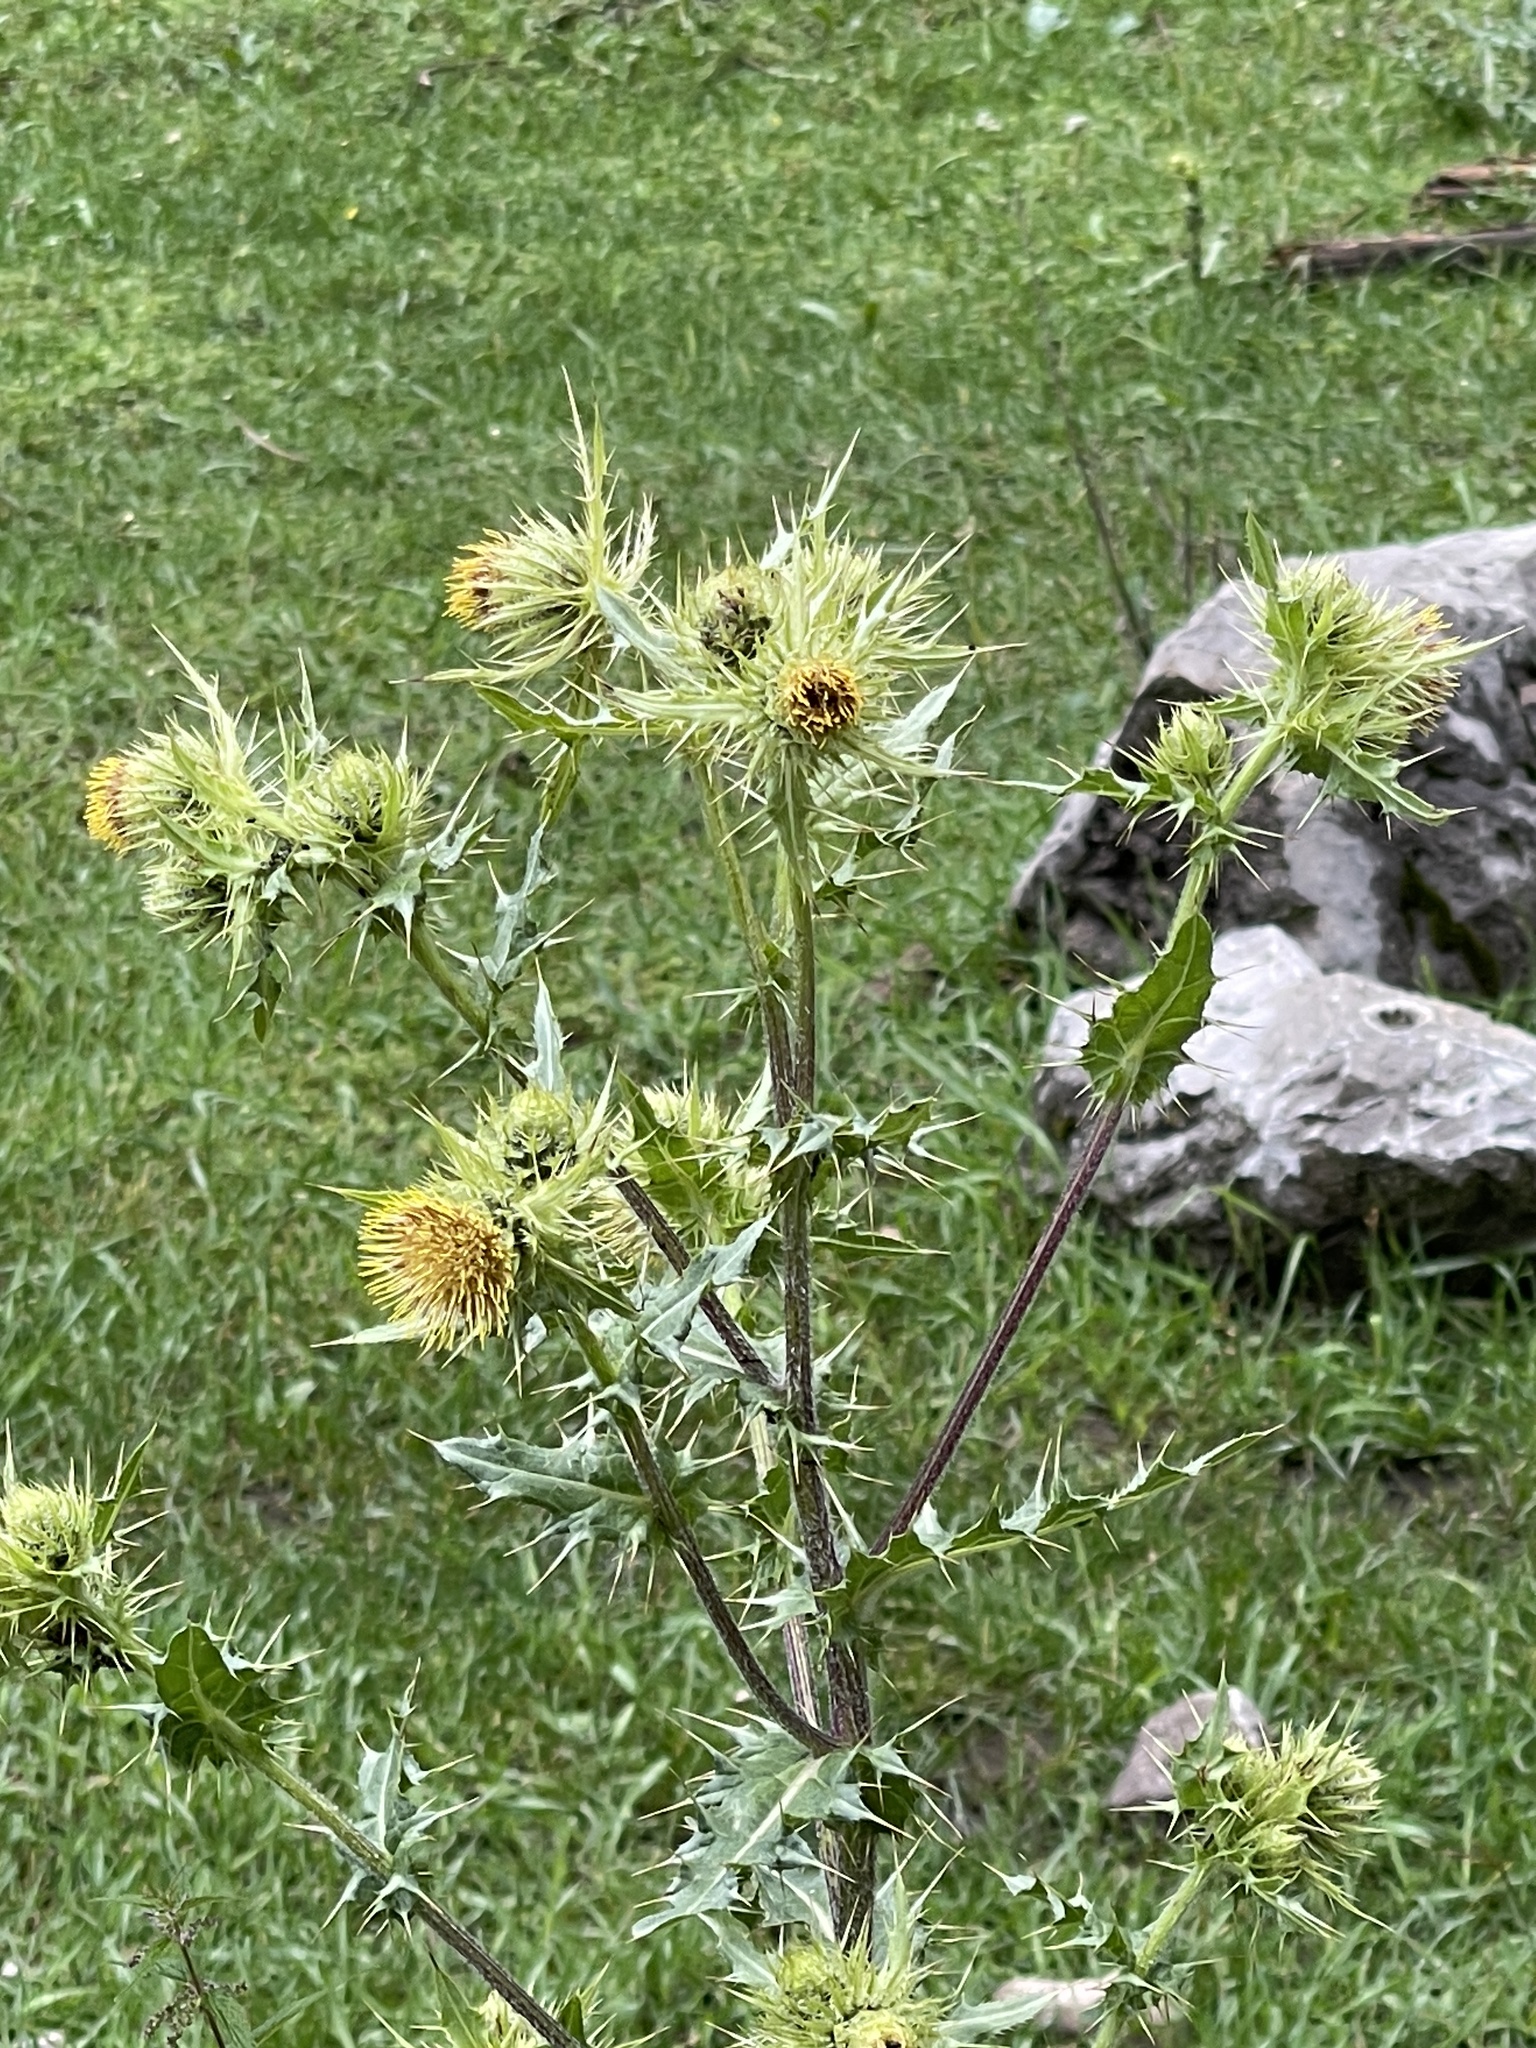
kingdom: Plantae
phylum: Tracheophyta
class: Magnoliopsida
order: Asterales
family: Asteraceae
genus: Cirsium
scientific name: Cirsium parryi
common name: Parry's thistle
